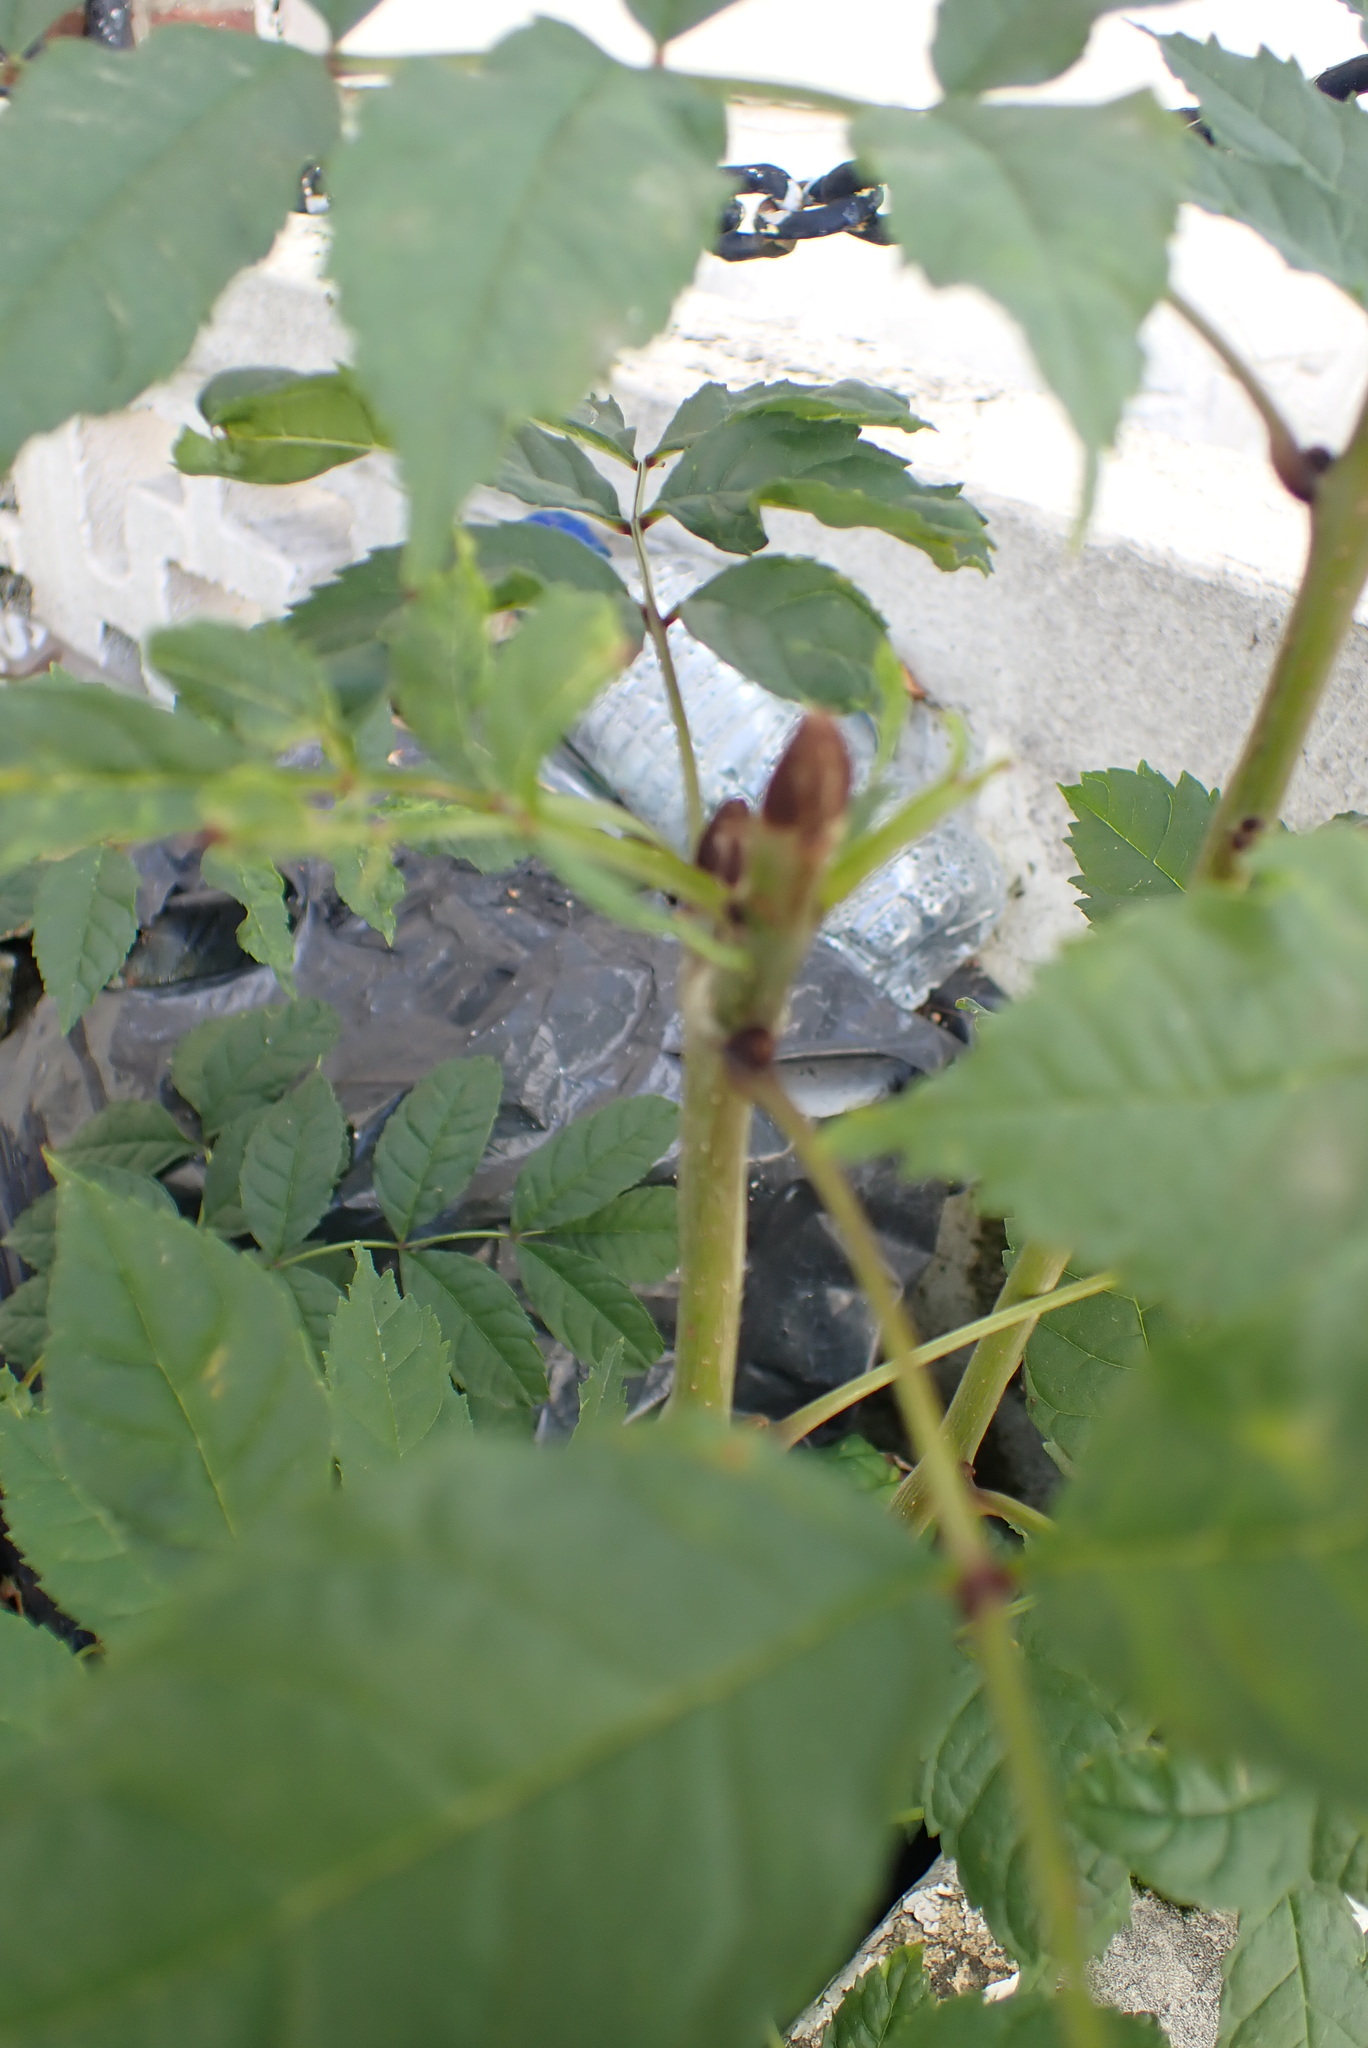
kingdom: Plantae
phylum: Tracheophyta
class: Magnoliopsida
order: Lamiales
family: Oleaceae
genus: Fraxinus
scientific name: Fraxinus excelsior
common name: European ash
